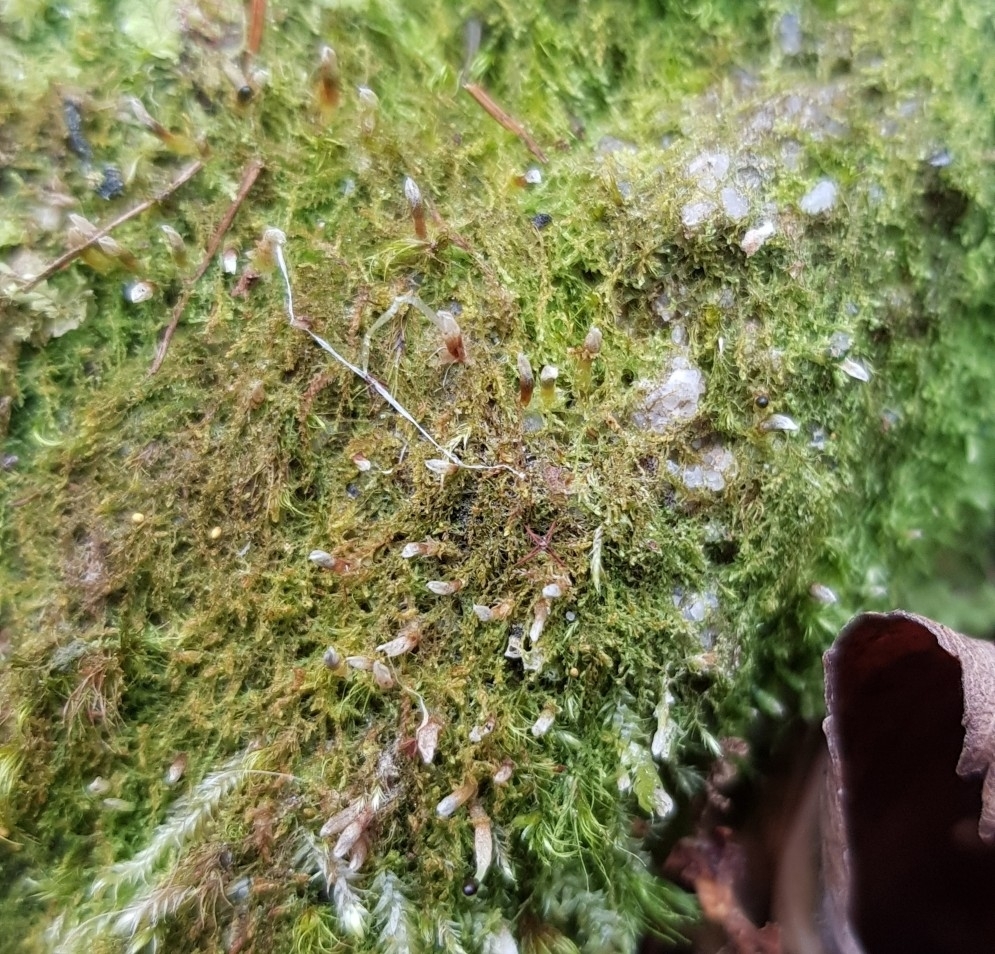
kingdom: Plantae
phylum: Marchantiophyta
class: Jungermanniopsida
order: Jungermanniales
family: Cephaloziaceae
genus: Cephalozia
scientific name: Cephalozia bicuspidata
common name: Two-horned pincerwort
